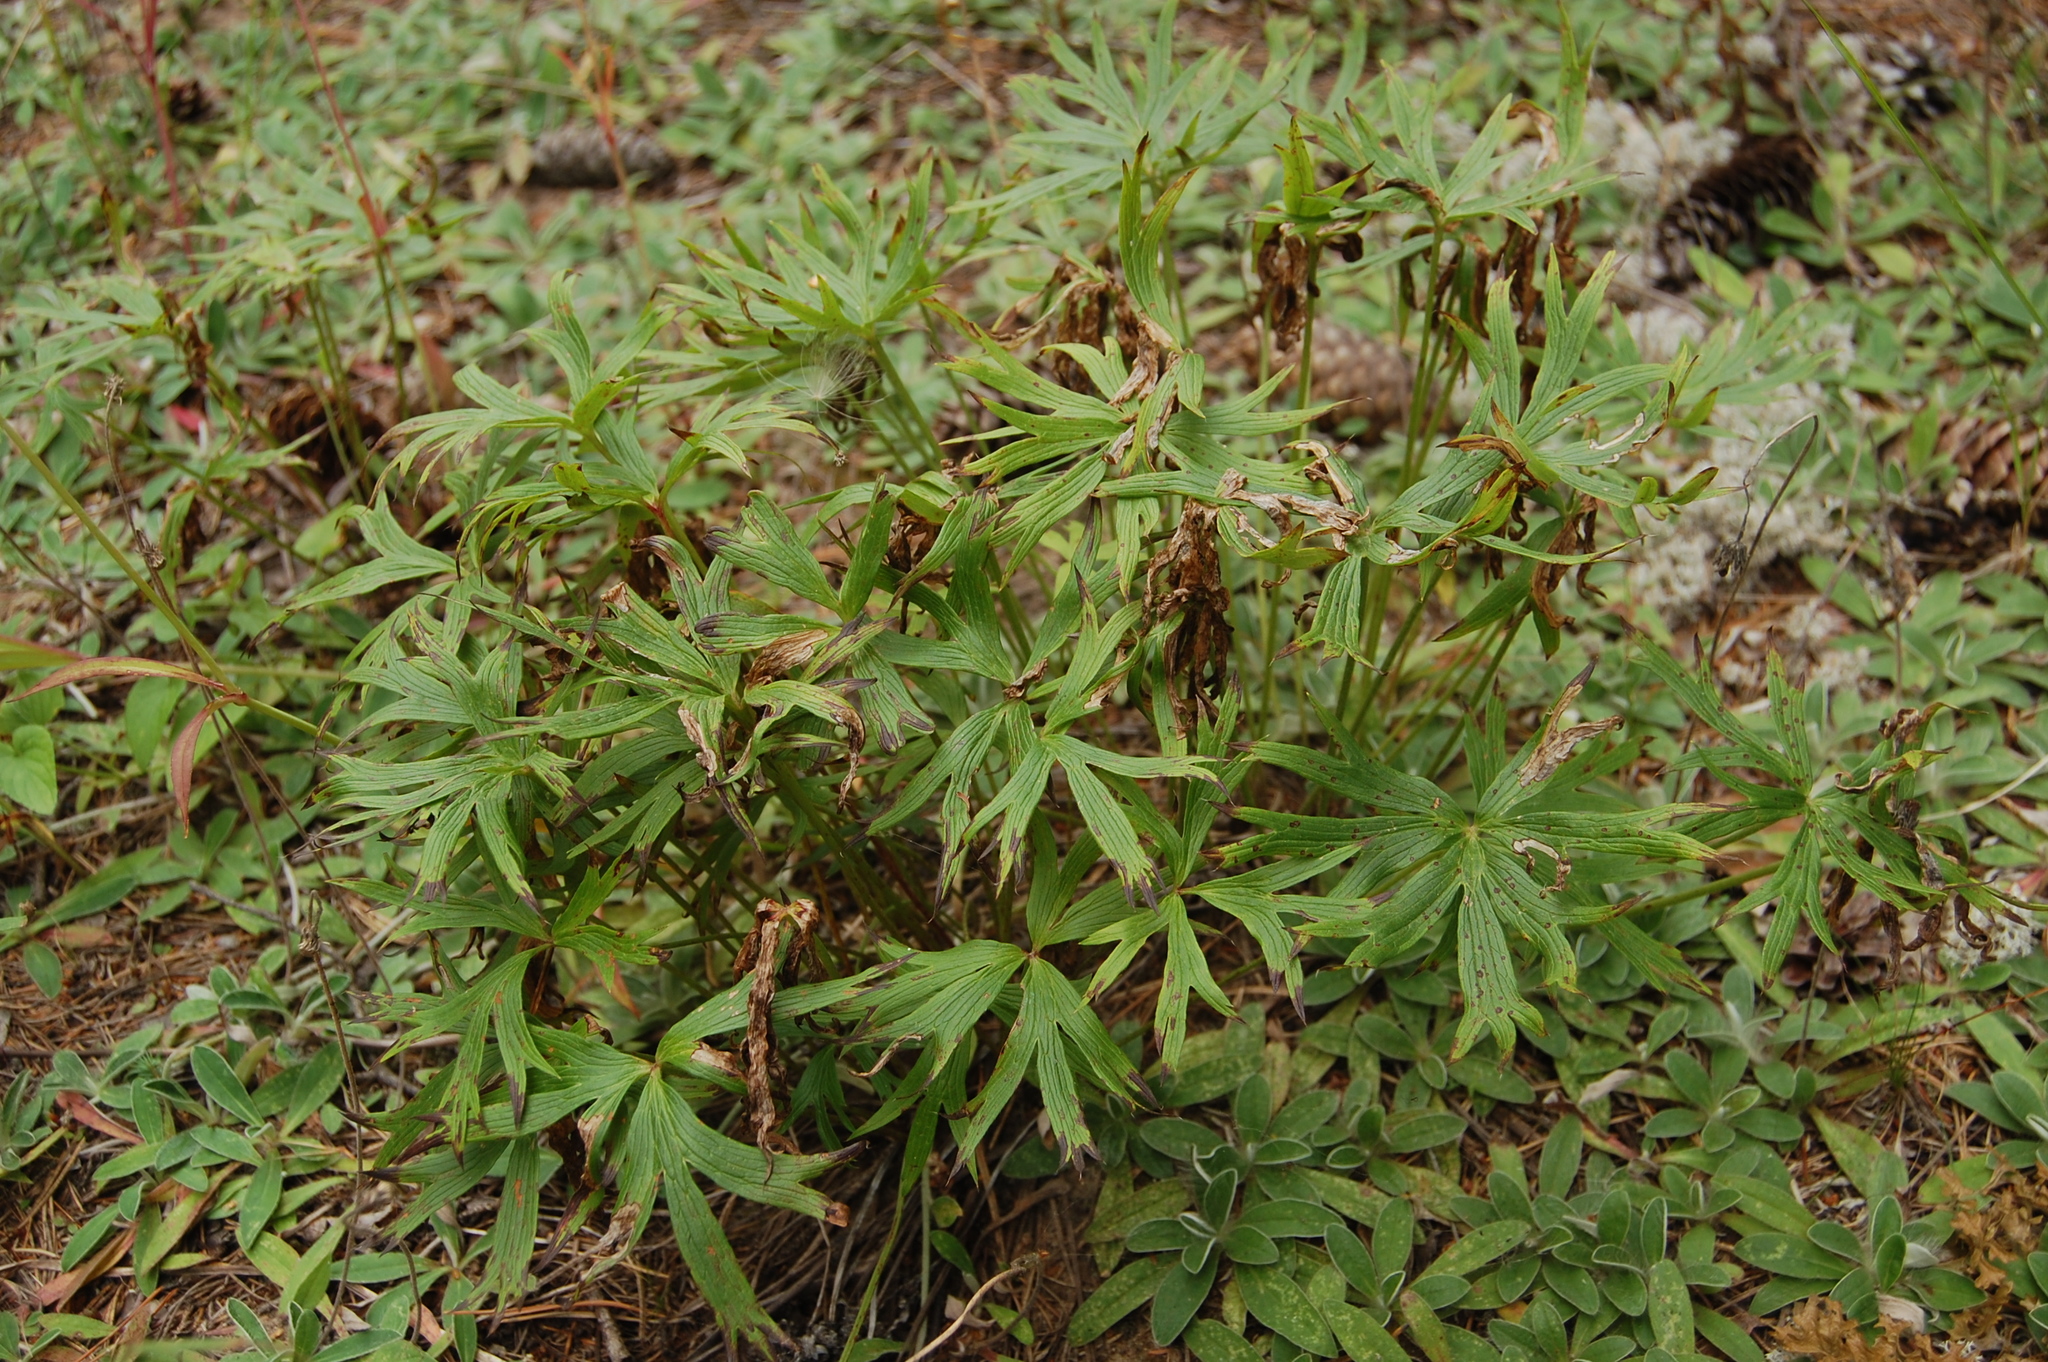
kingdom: Plantae
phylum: Tracheophyta
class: Magnoliopsida
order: Ranunculales
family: Ranunculaceae
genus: Pulsatilla
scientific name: Pulsatilla patens
